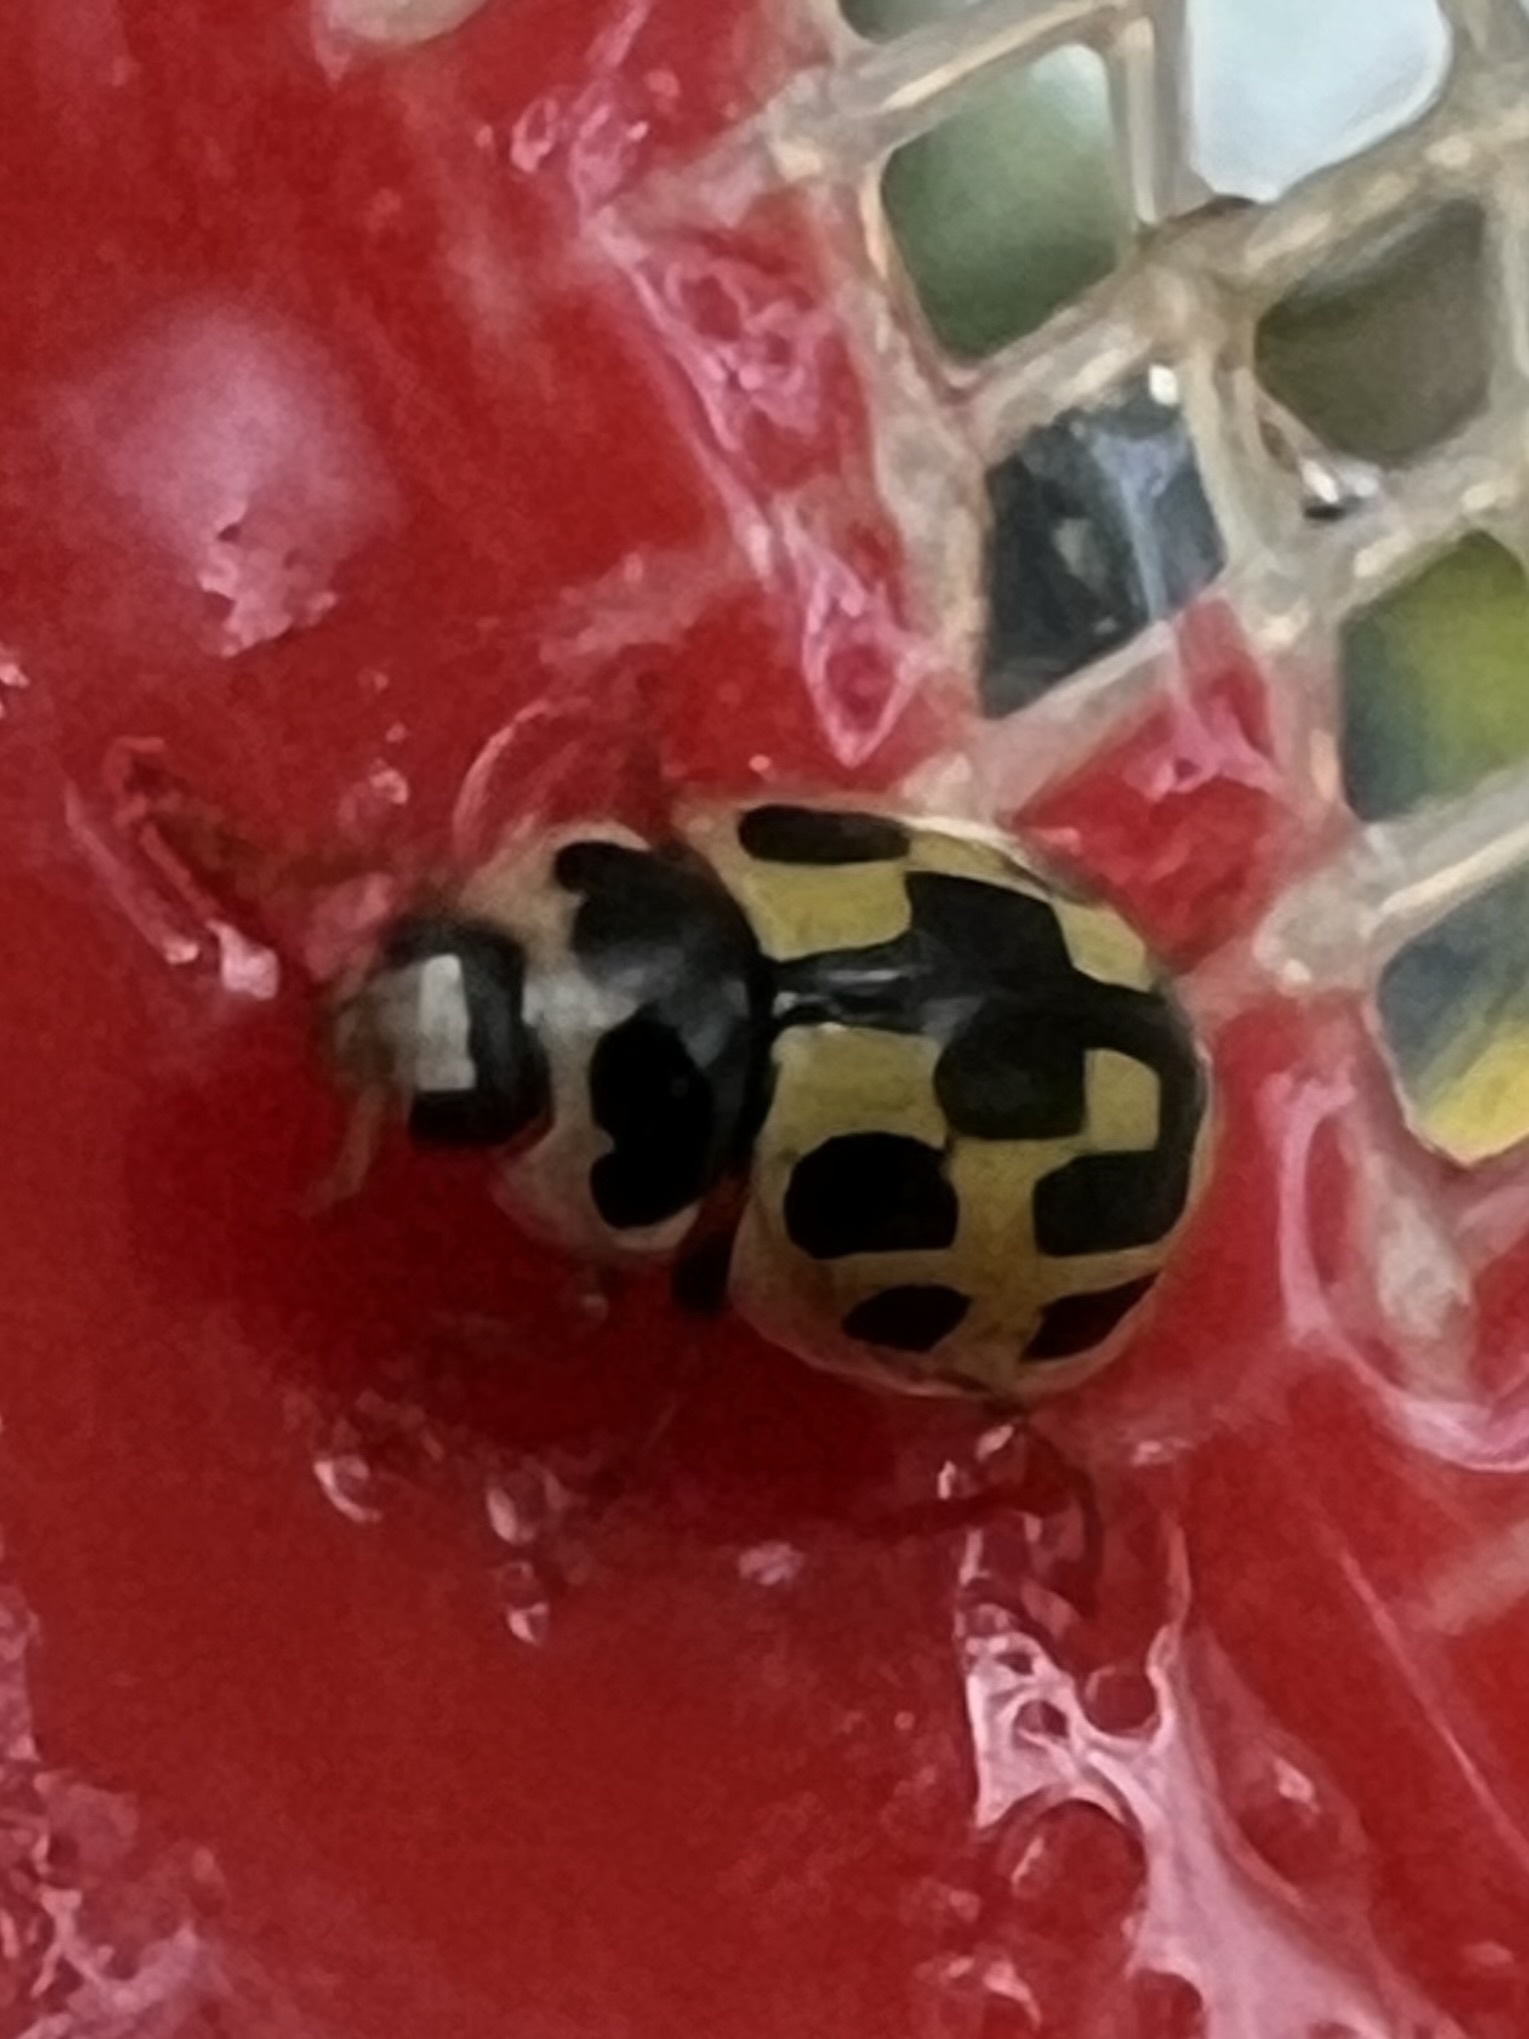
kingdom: Animalia
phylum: Arthropoda
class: Insecta
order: Coleoptera
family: Coccinellidae
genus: Propylaea
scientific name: Propylaea quatuordecimpunctata
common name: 14-spotted ladybird beetle
